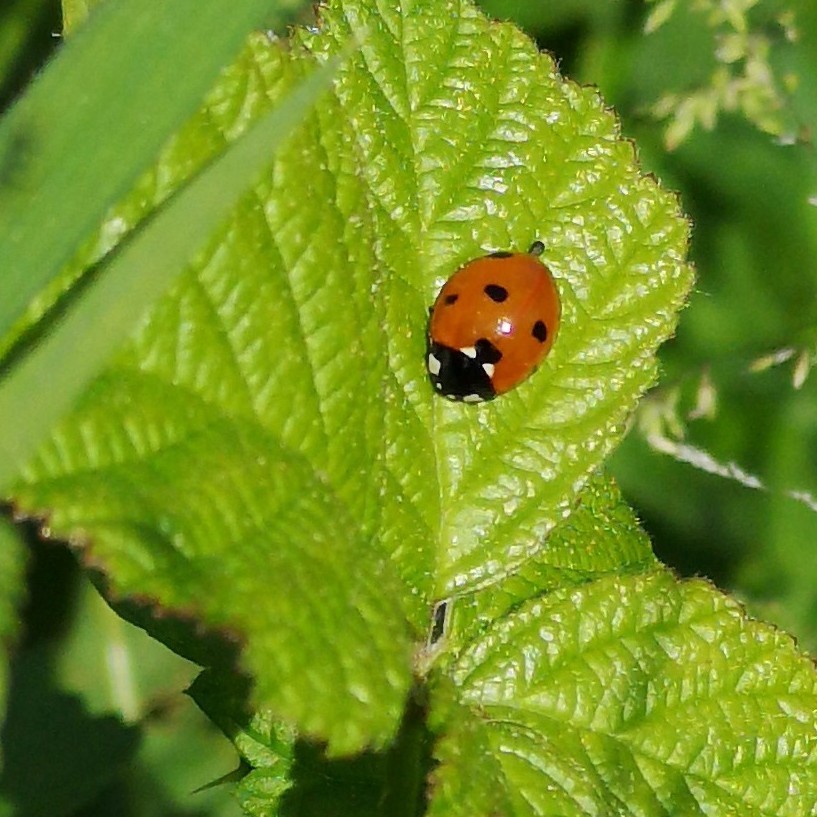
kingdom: Animalia
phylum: Arthropoda
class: Insecta
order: Coleoptera
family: Coccinellidae
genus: Coccinella
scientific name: Coccinella septempunctata
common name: Sevenspotted lady beetle
